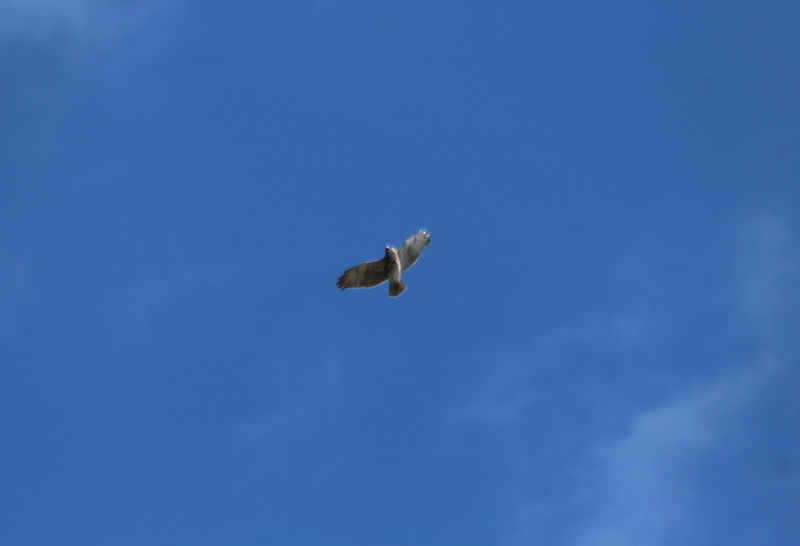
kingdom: Animalia
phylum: Chordata
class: Aves
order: Accipitriformes
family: Accipitridae
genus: Buteo
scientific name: Buteo solitarius
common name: Hawaiian hawk
